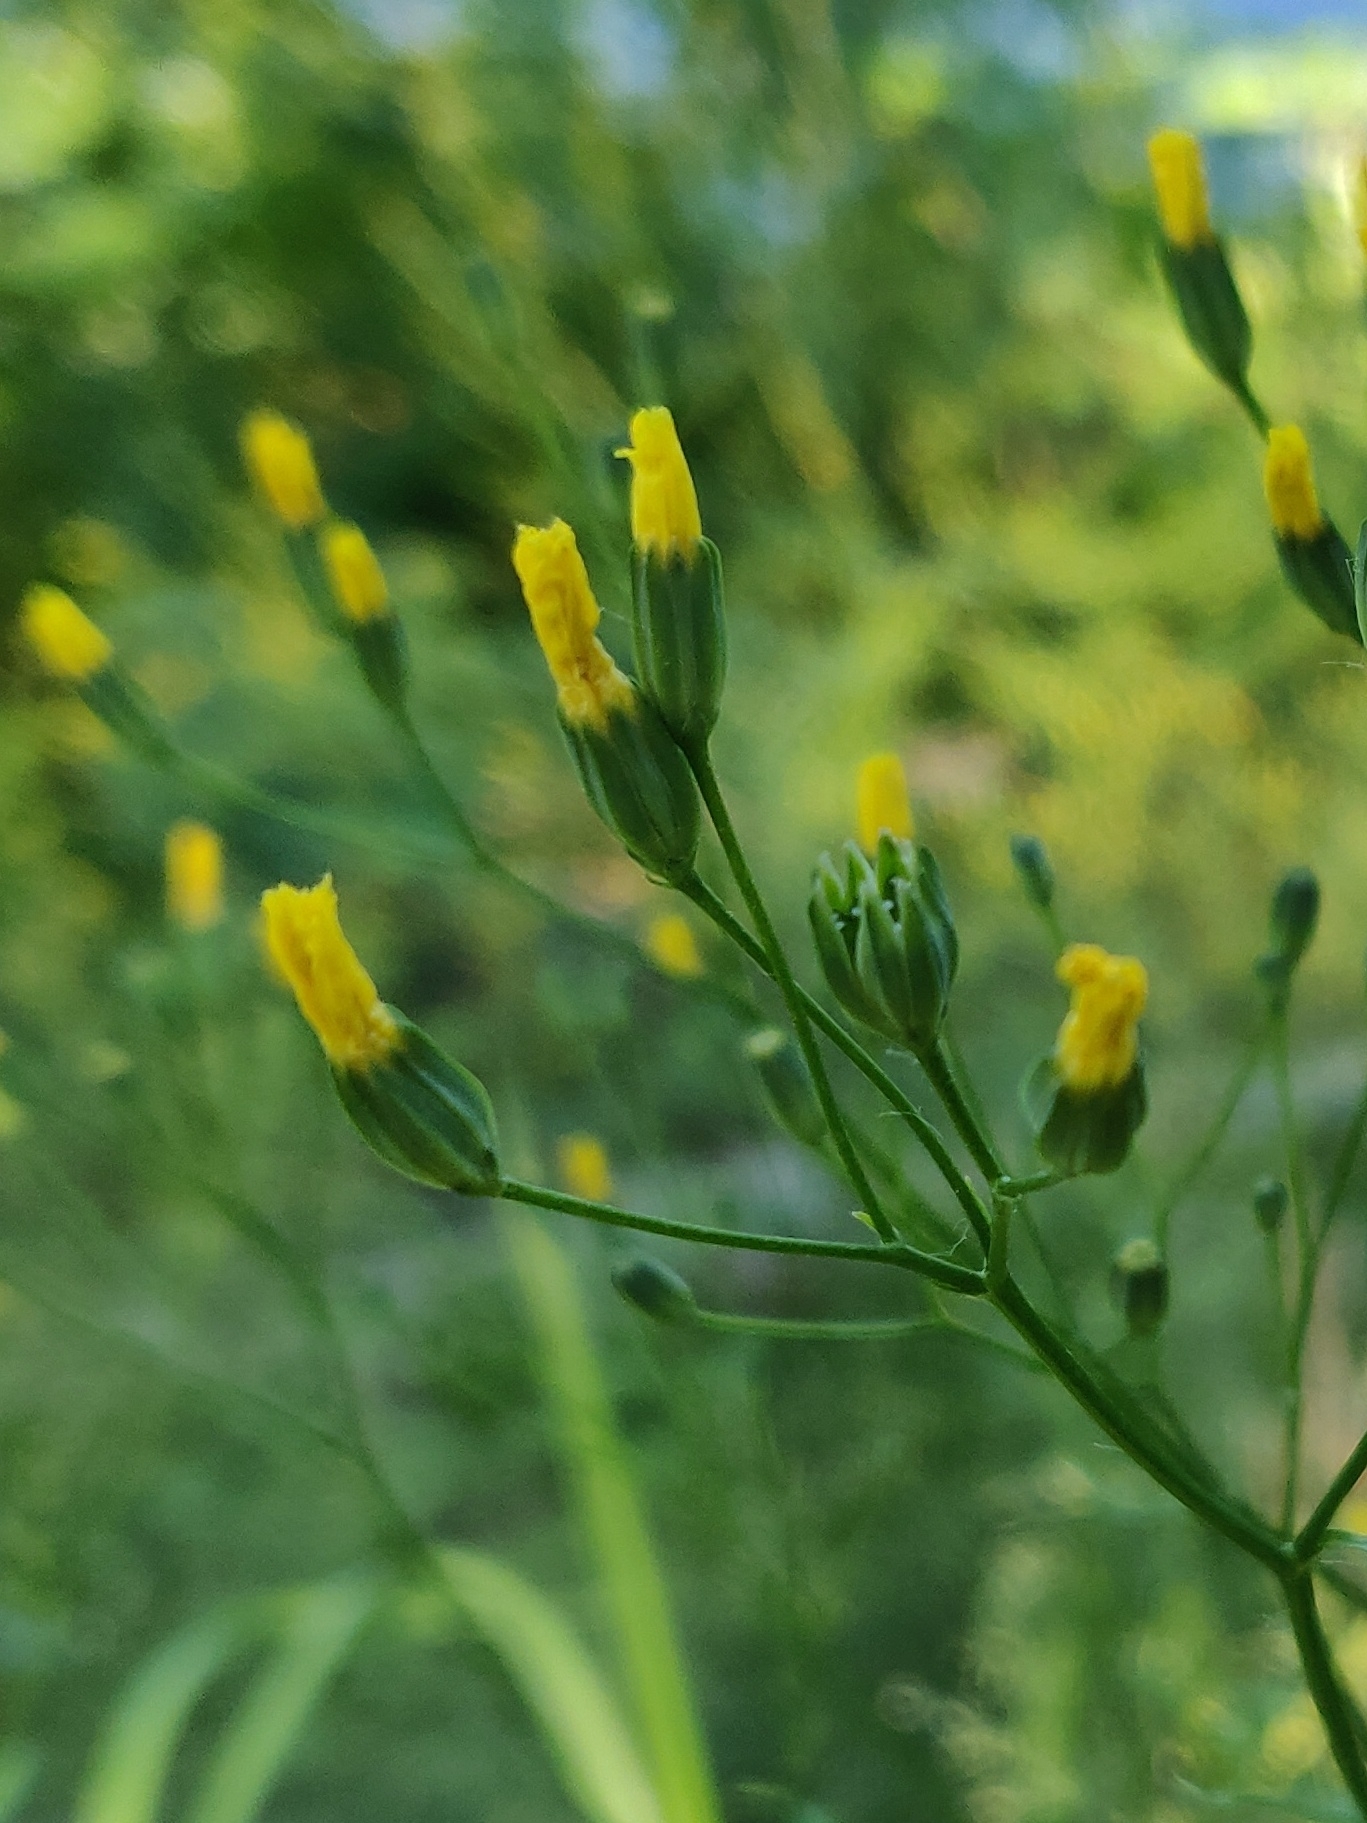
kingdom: Plantae
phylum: Tracheophyta
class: Magnoliopsida
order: Asterales
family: Asteraceae
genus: Lapsana
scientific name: Lapsana communis
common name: Nipplewort
